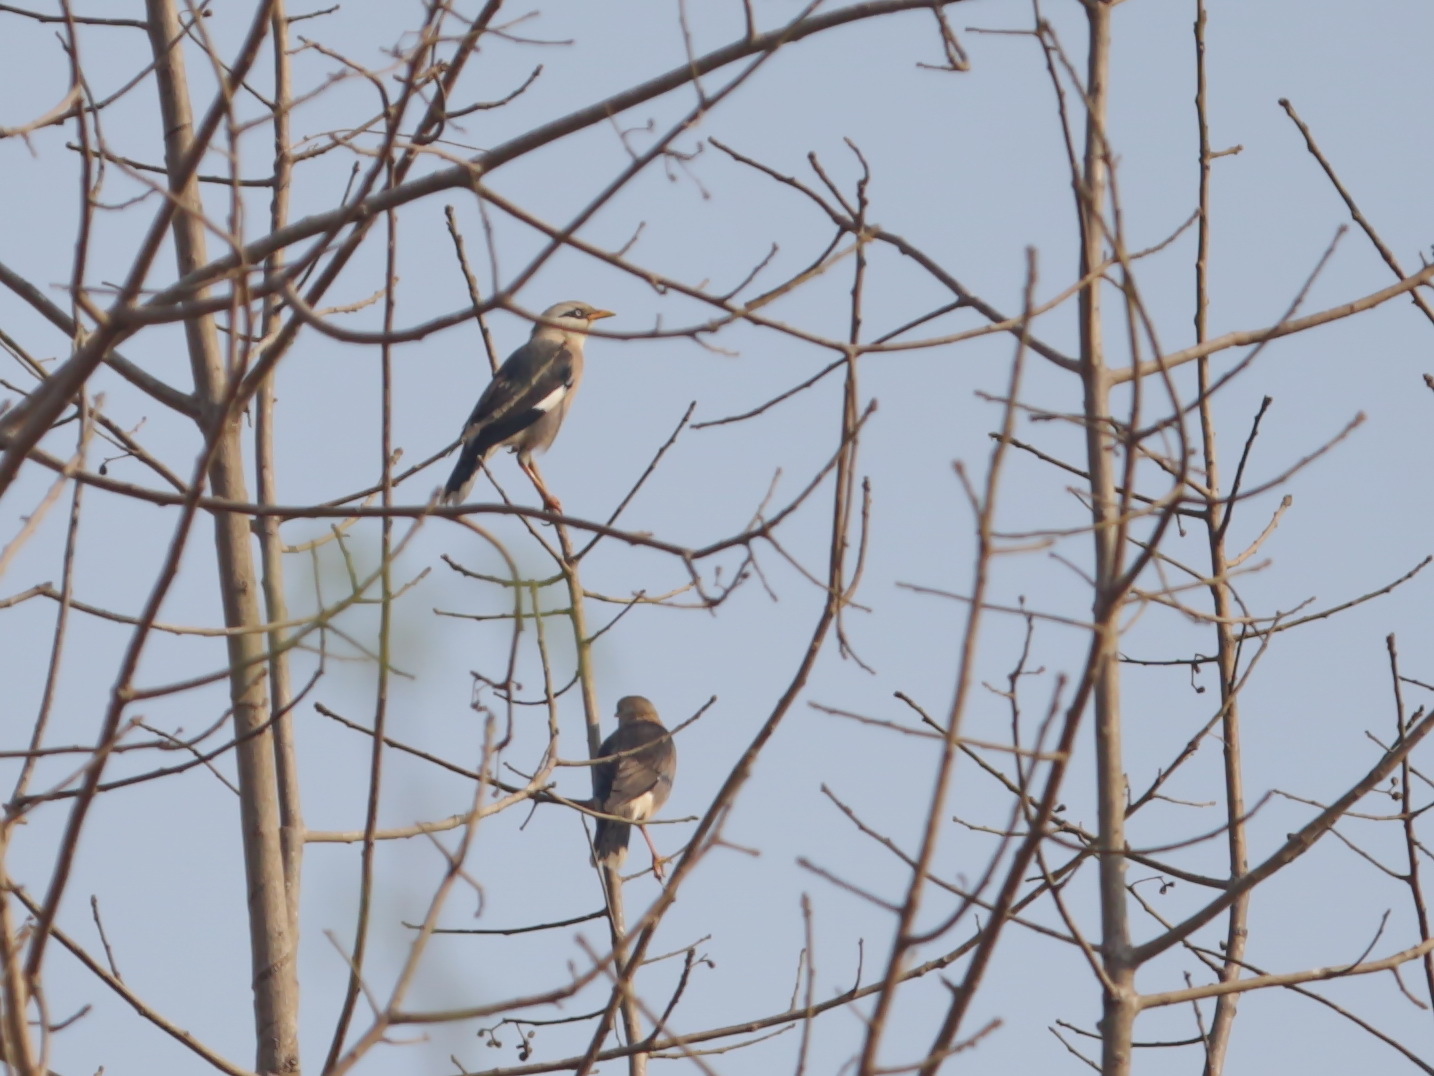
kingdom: Animalia
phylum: Chordata
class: Aves
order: Passeriformes
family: Sturnidae
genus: Acridotheres
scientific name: Acridotheres leucocephalus
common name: Vinous-breasted myna
